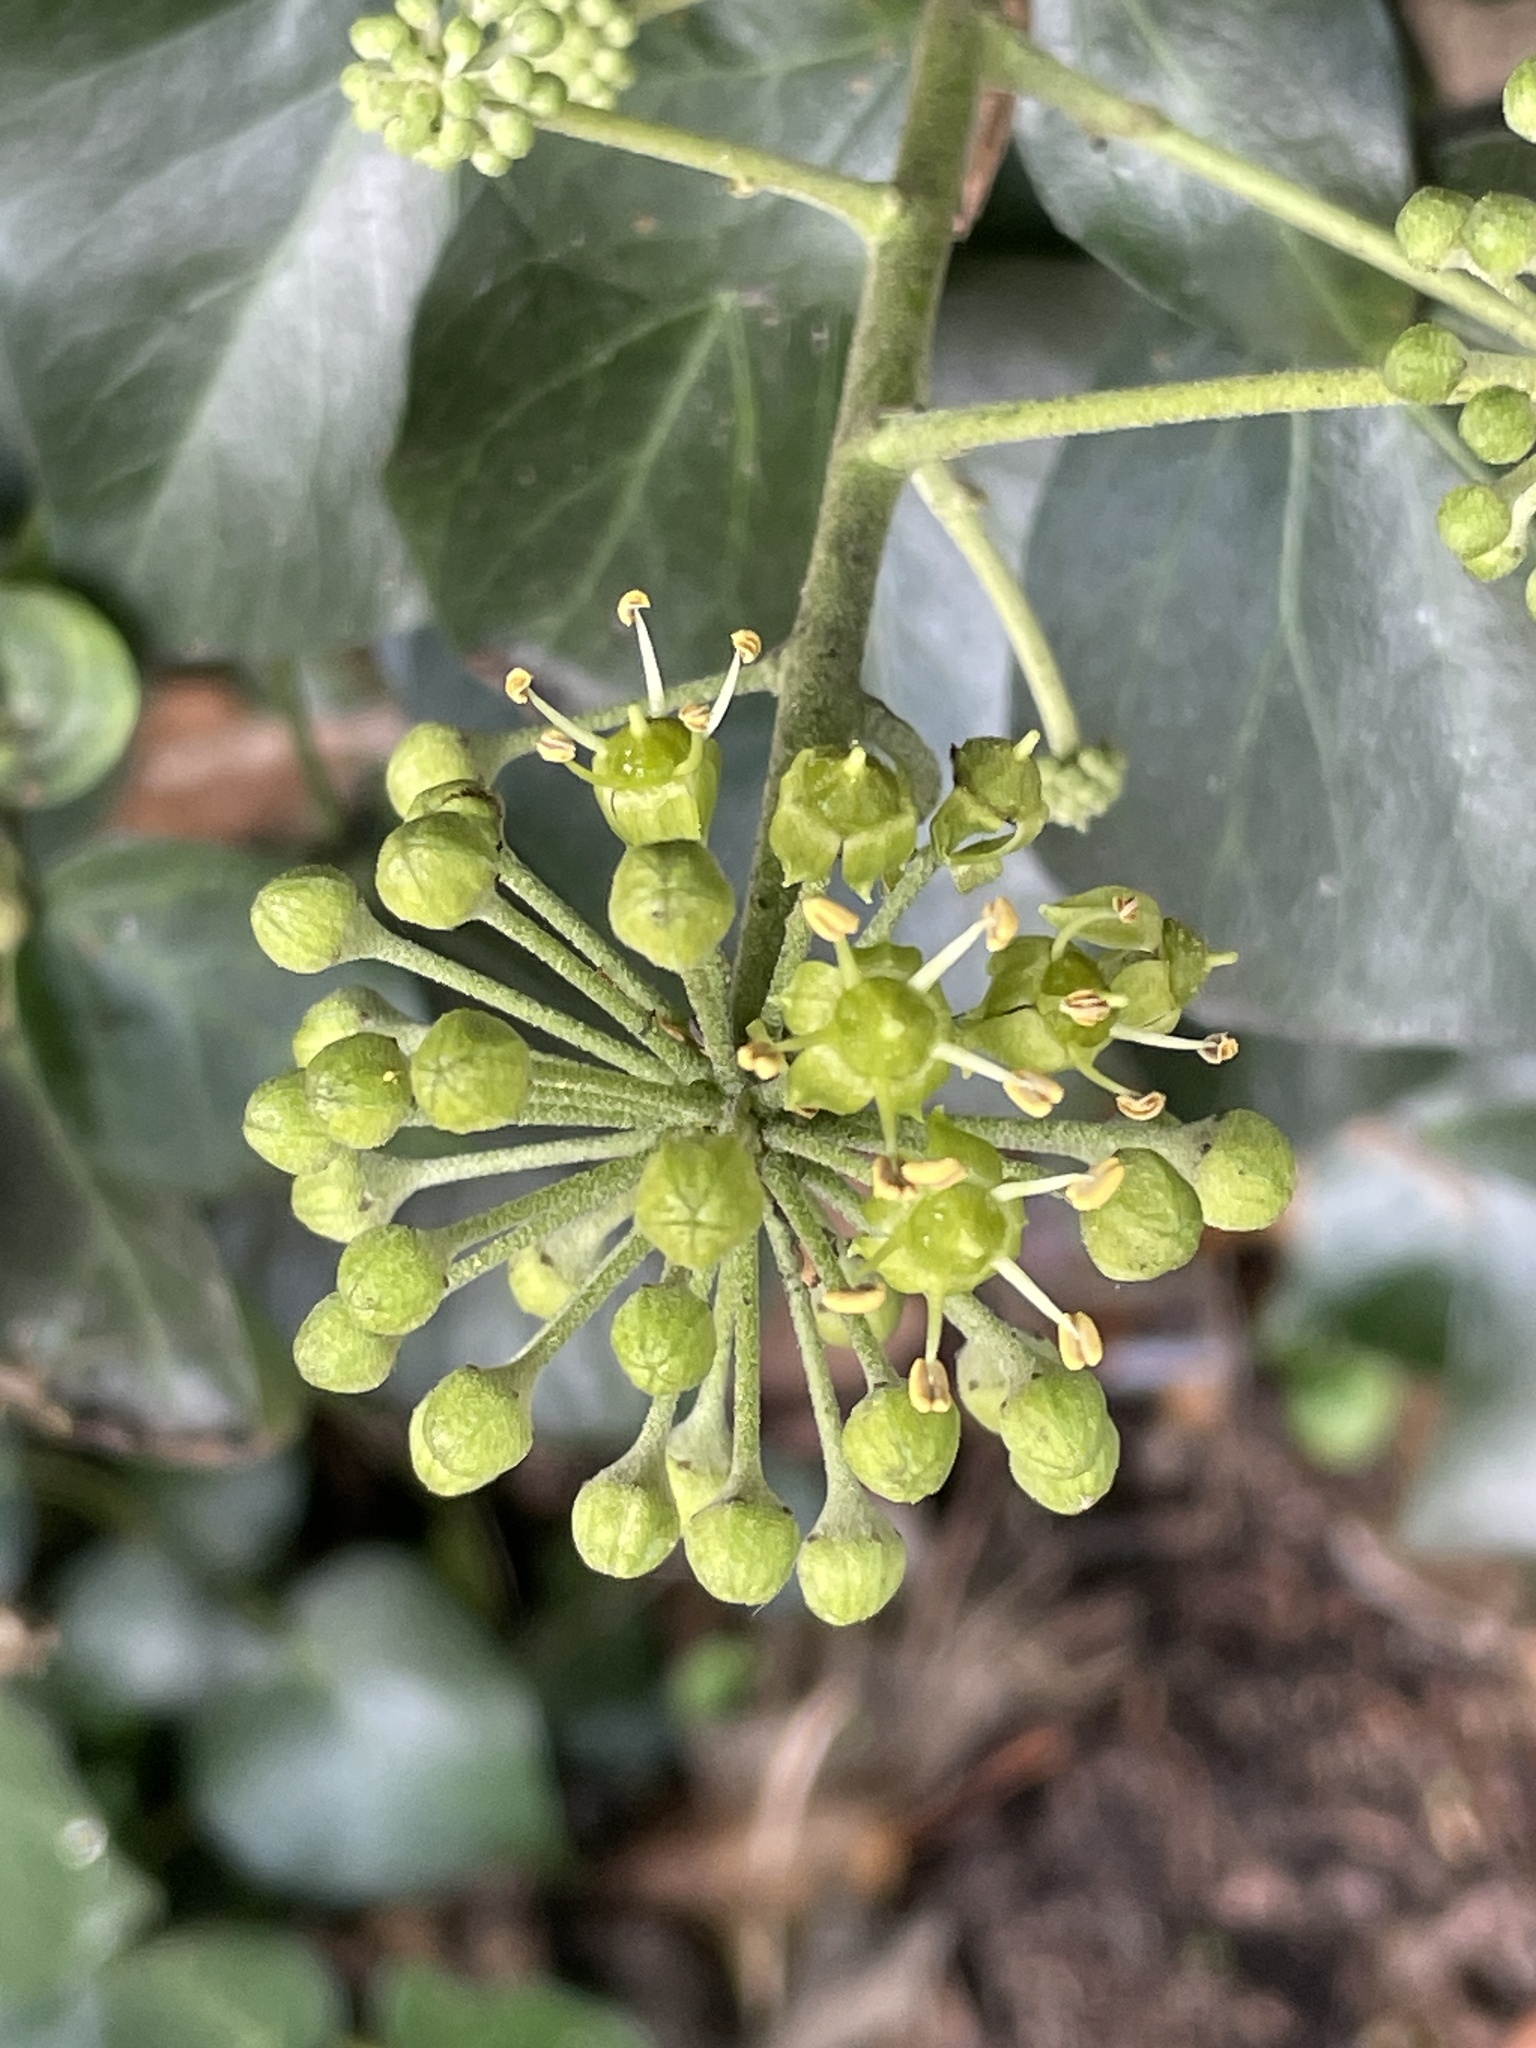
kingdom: Plantae
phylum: Tracheophyta
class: Magnoliopsida
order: Apiales
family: Araliaceae
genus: Hedera
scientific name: Hedera helix
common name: Ivy
